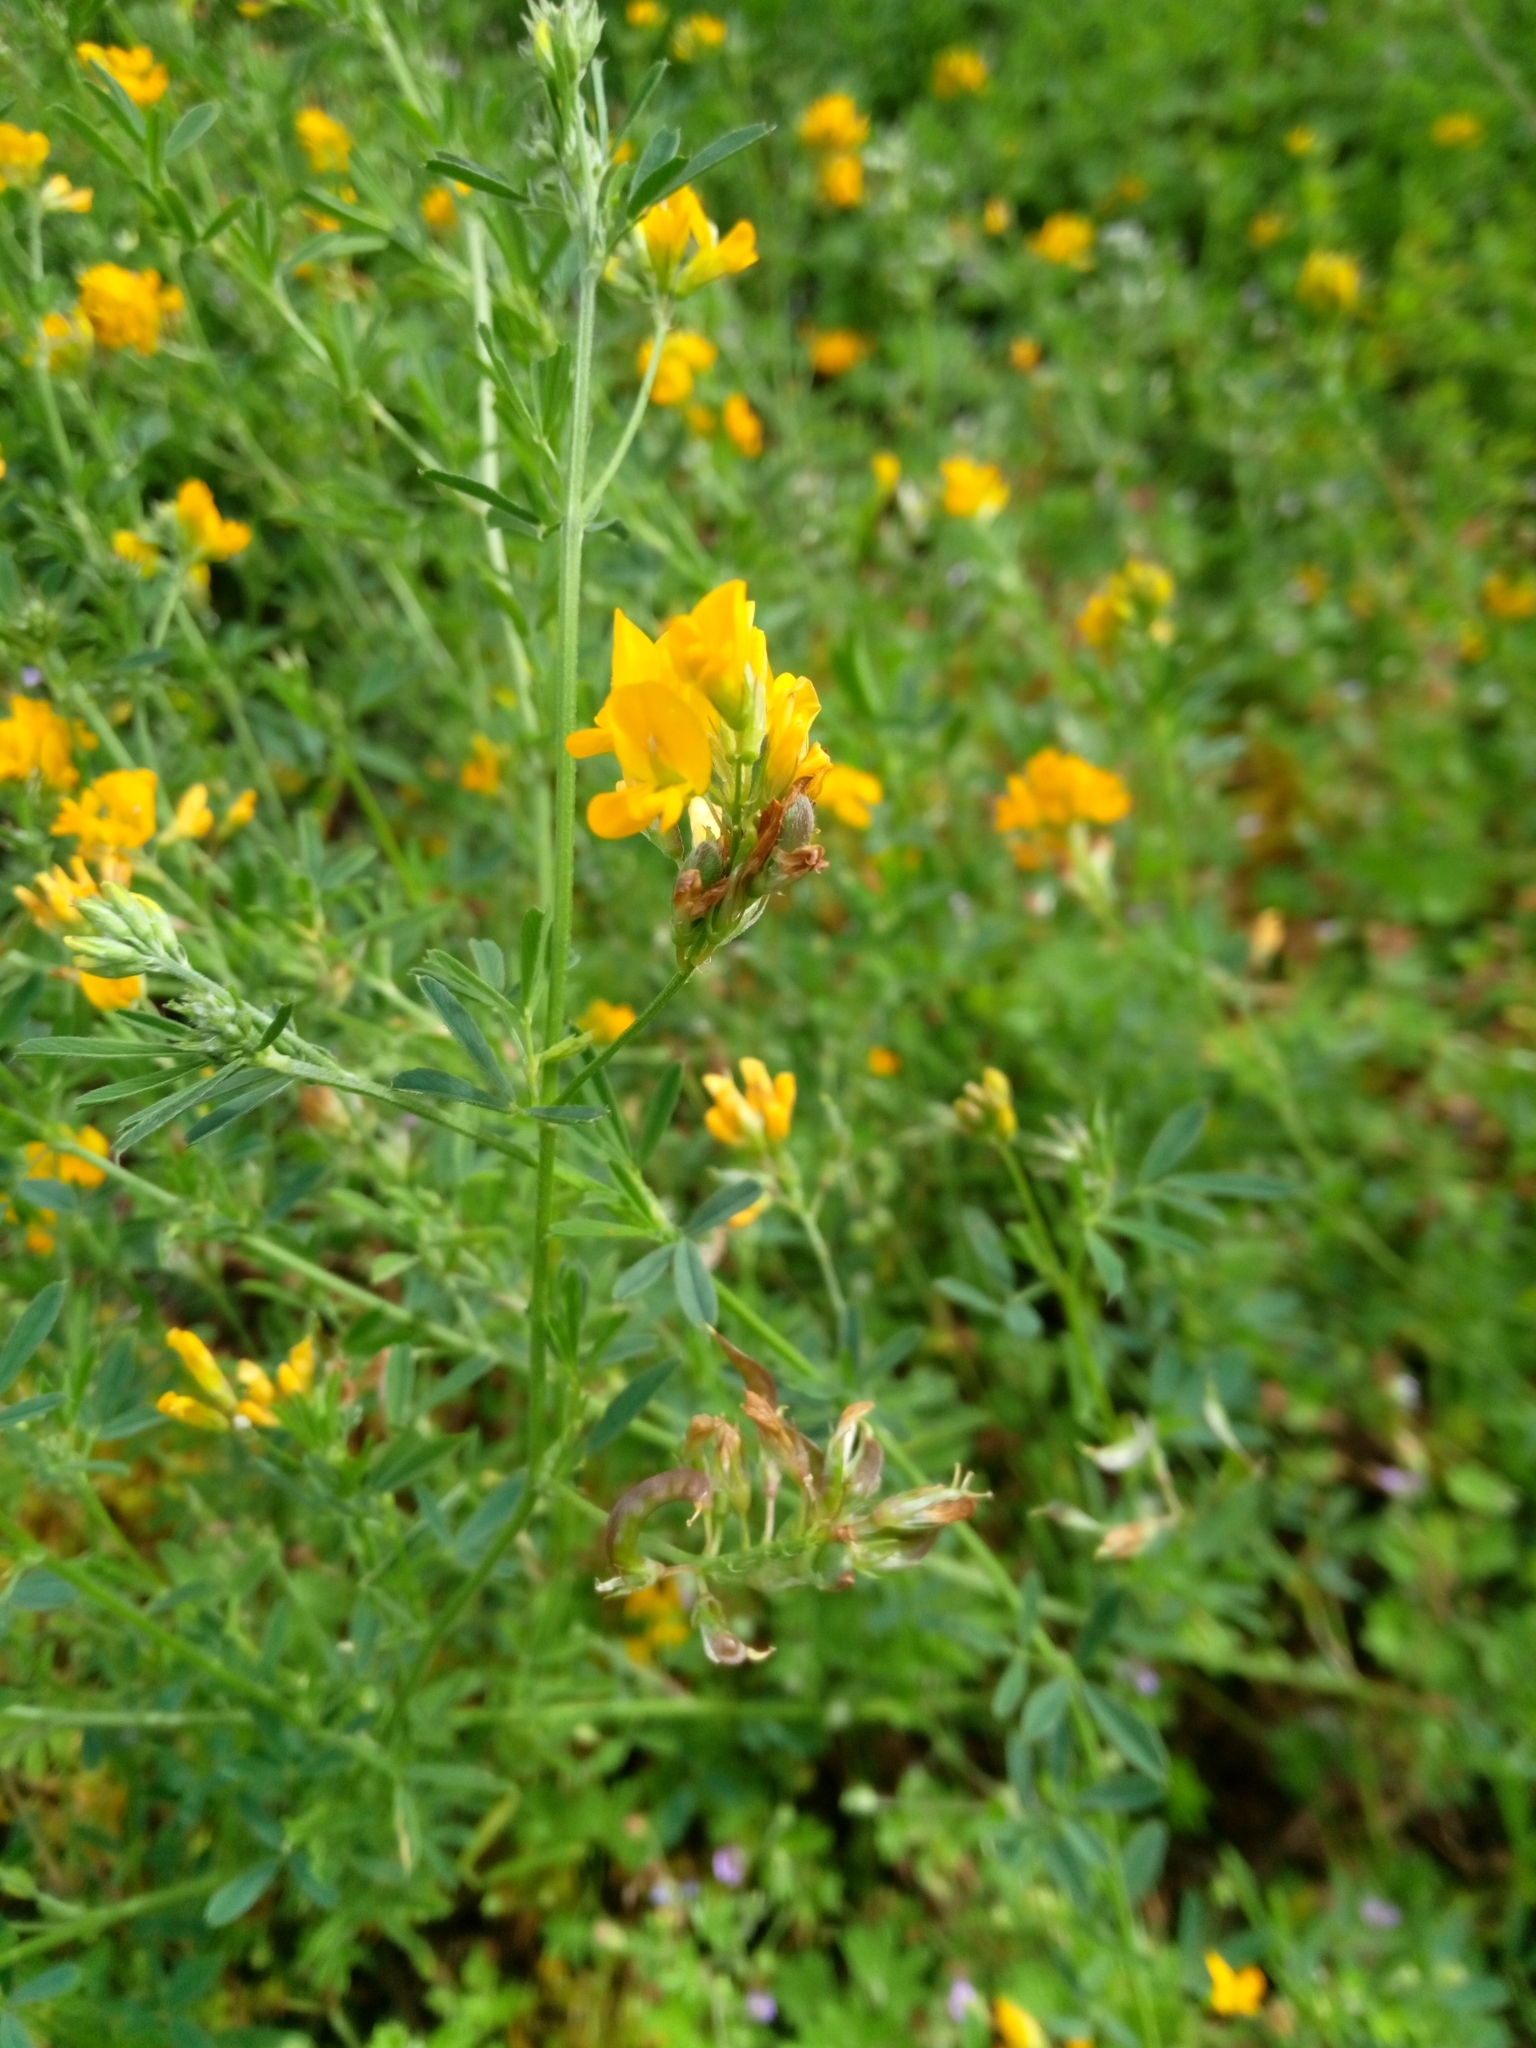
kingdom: Plantae
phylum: Tracheophyta
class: Magnoliopsida
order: Fabales
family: Fabaceae
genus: Medicago
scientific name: Medicago falcata
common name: Sickle medick
